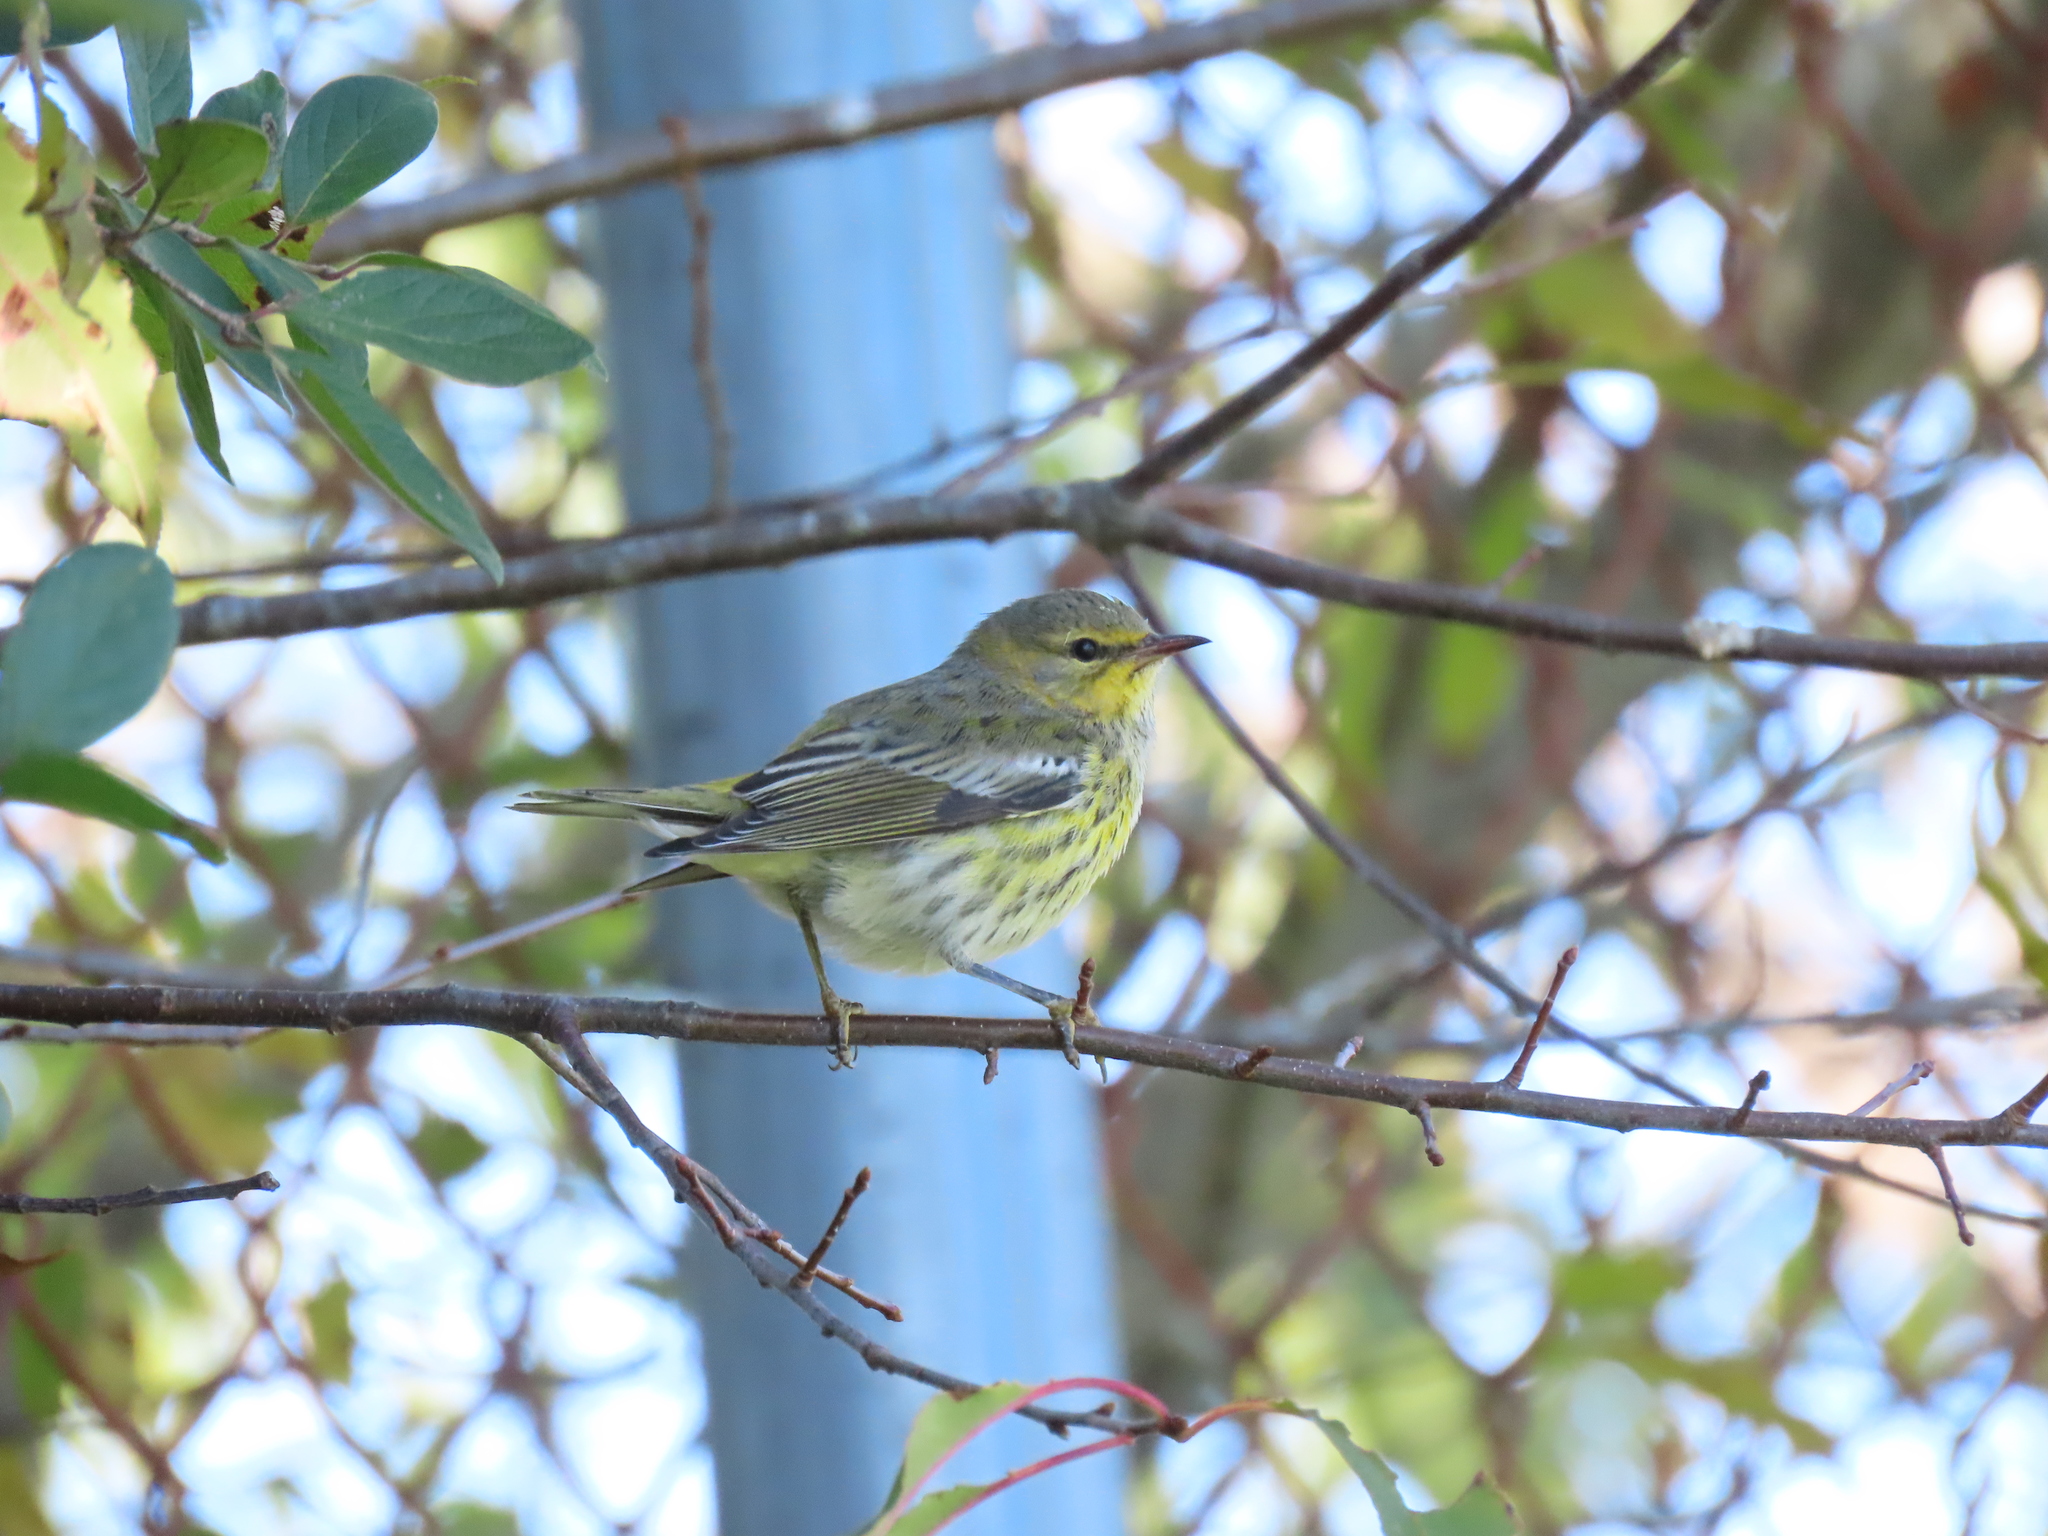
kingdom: Animalia
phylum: Chordata
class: Aves
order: Passeriformes
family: Parulidae
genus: Setophaga
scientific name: Setophaga tigrina
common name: Cape may warbler
